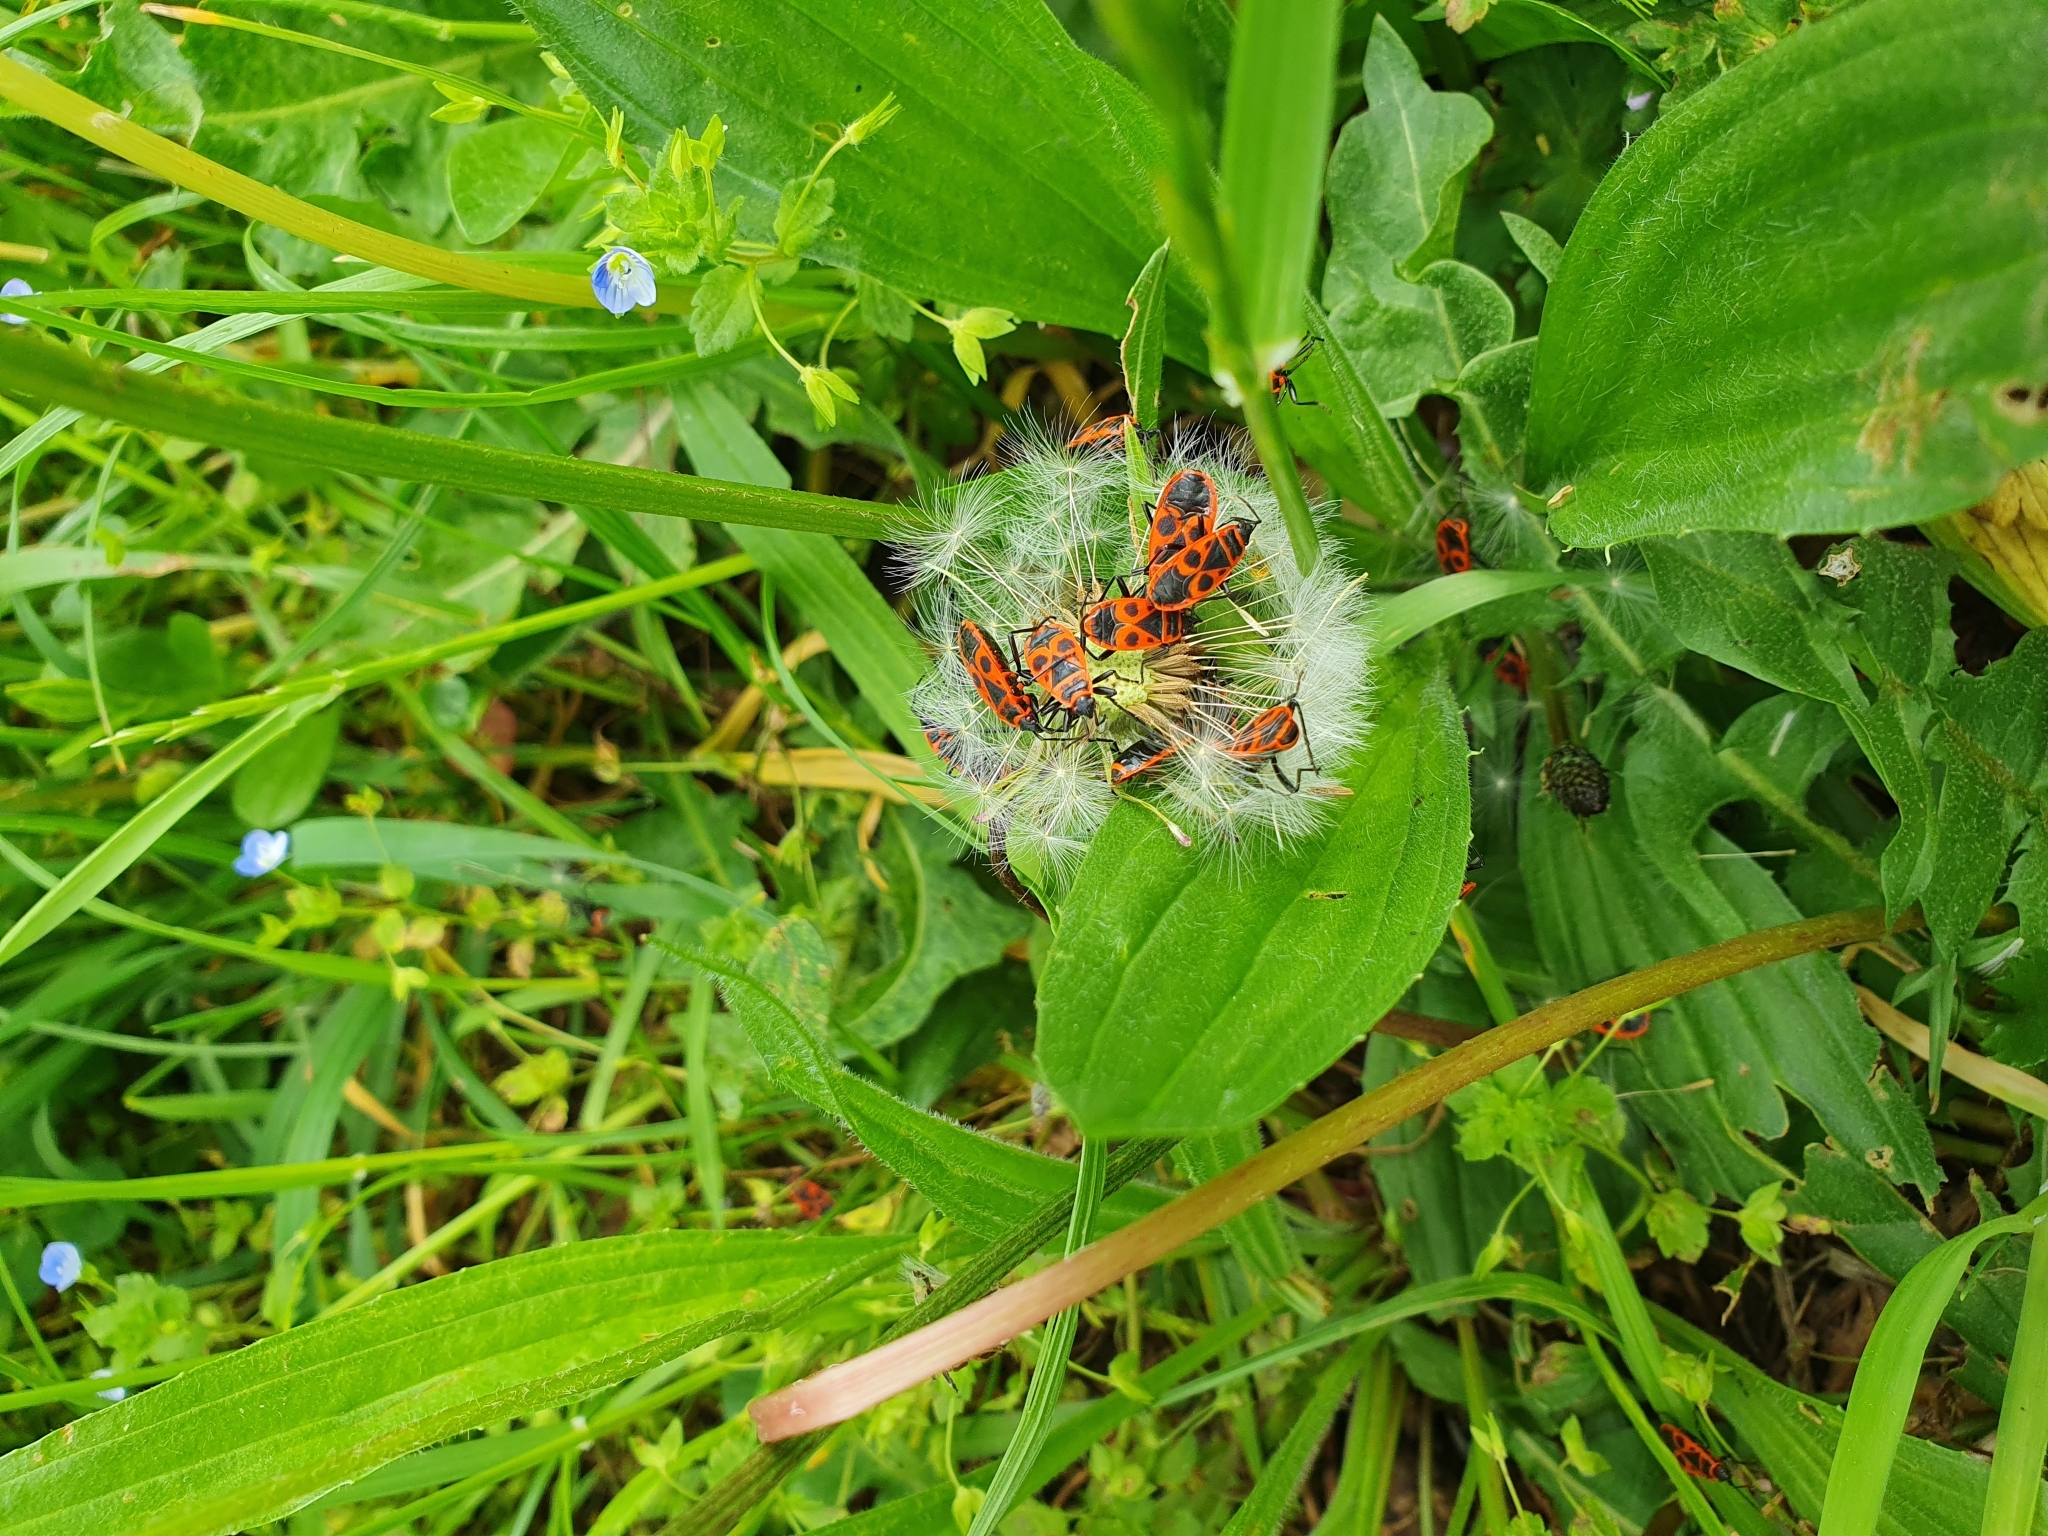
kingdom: Animalia
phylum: Arthropoda
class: Insecta
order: Hemiptera
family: Pyrrhocoridae
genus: Pyrrhocoris
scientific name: Pyrrhocoris apterus
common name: Firebug
